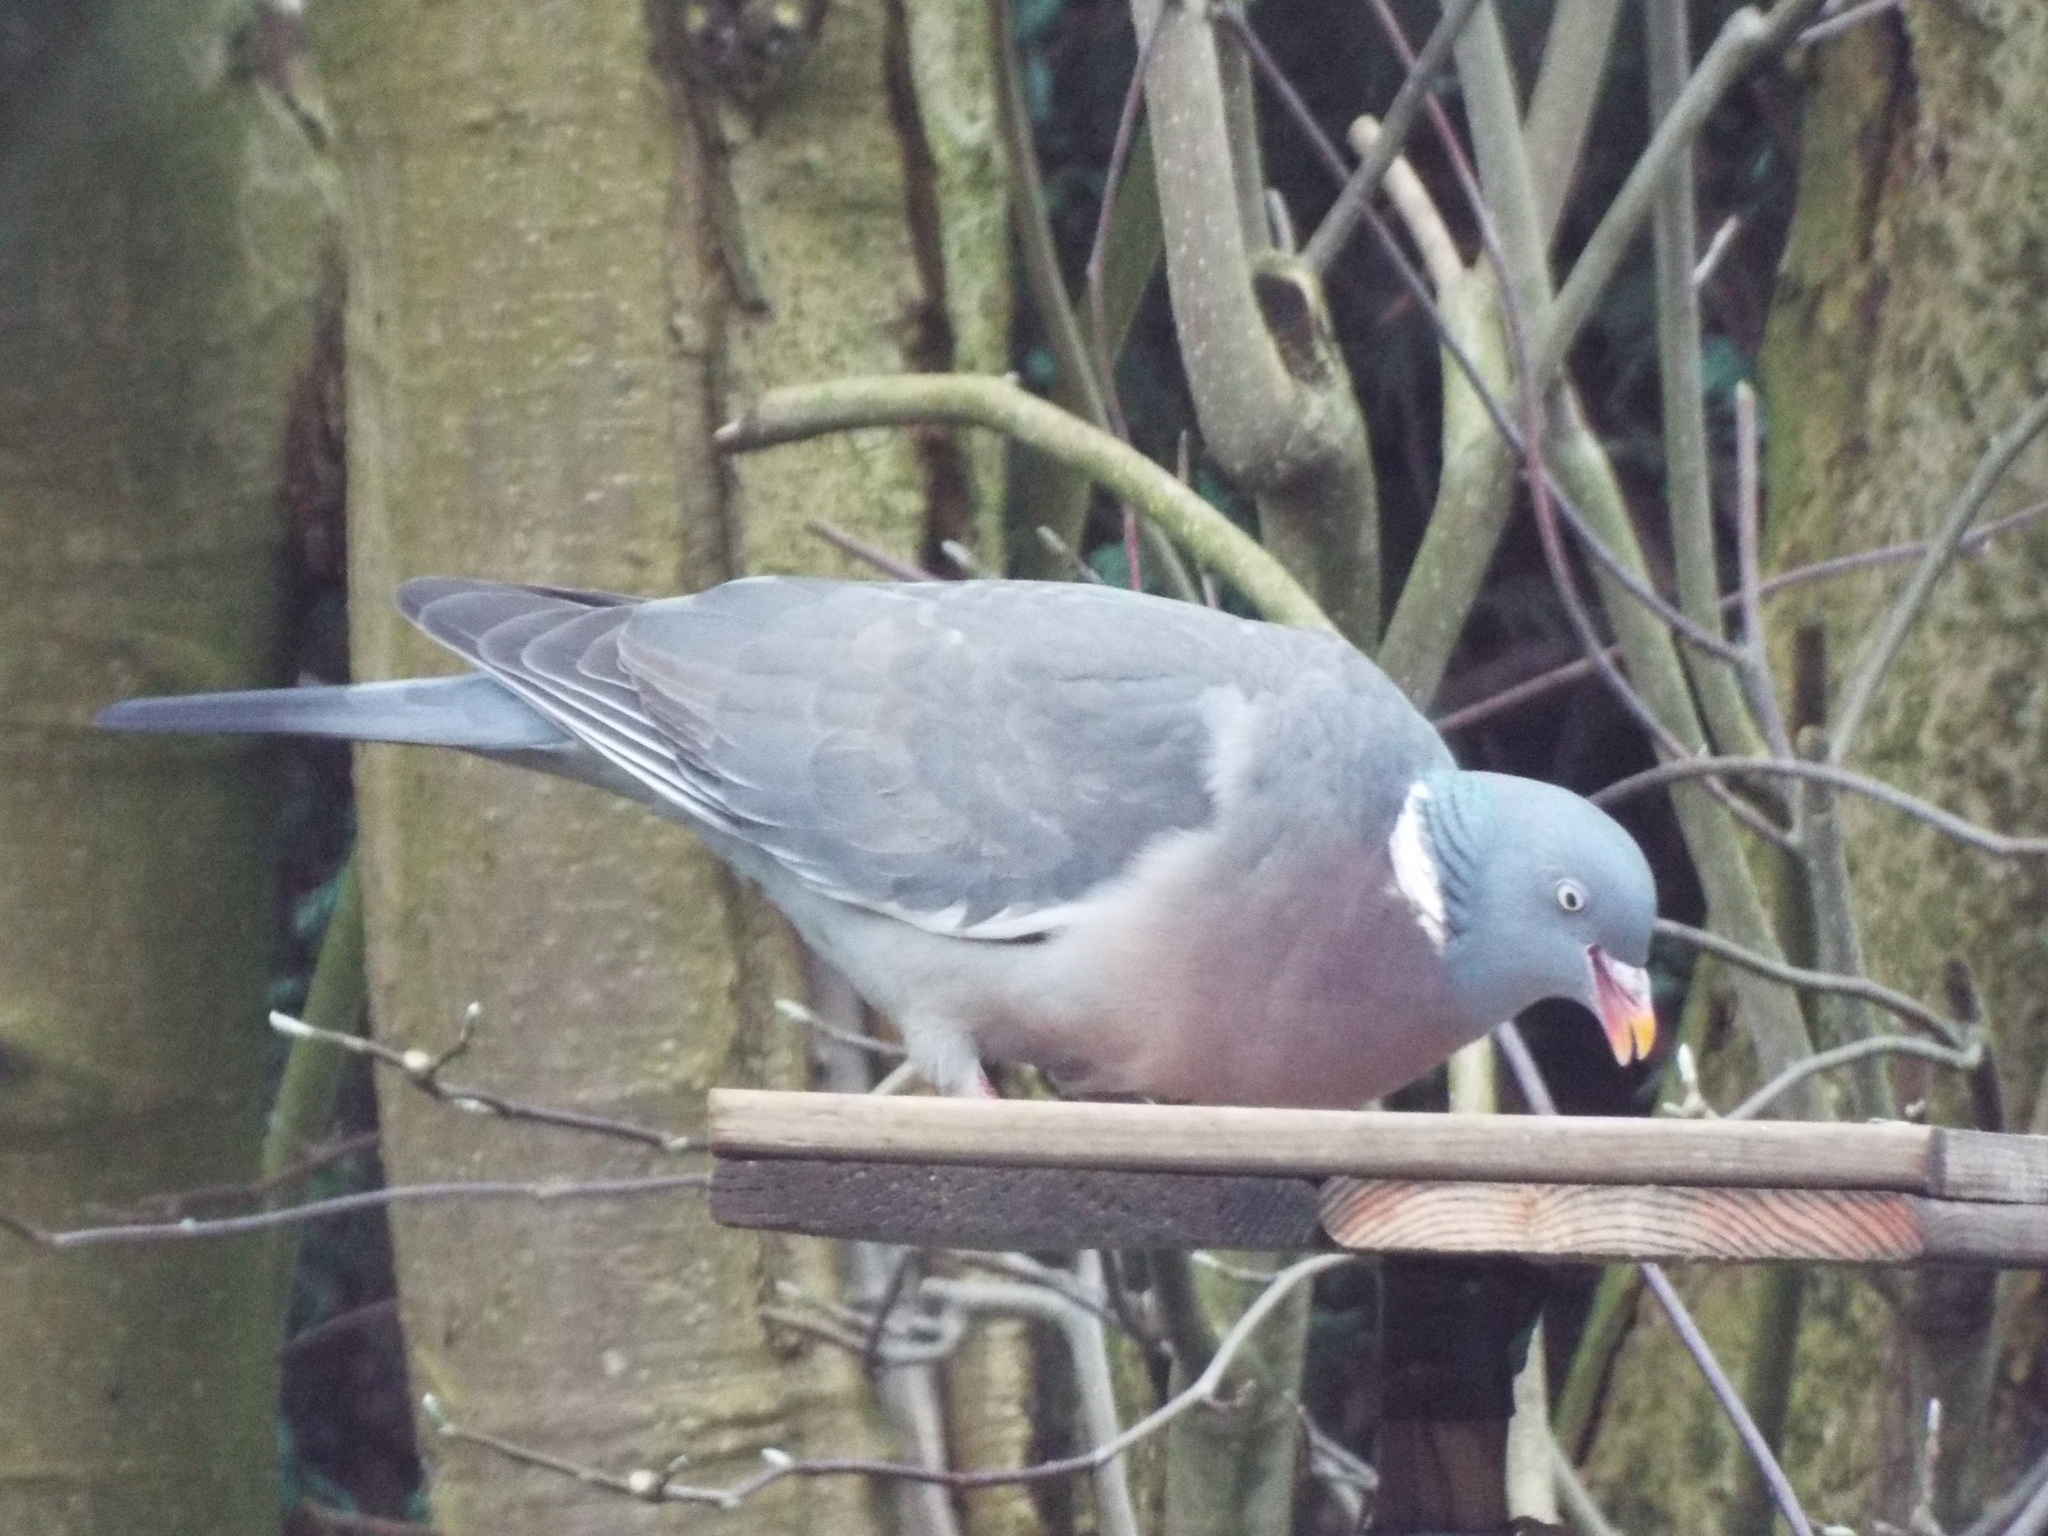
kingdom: Animalia
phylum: Chordata
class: Aves
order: Columbiformes
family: Columbidae
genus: Columba
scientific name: Columba palumbus
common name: Common wood pigeon
